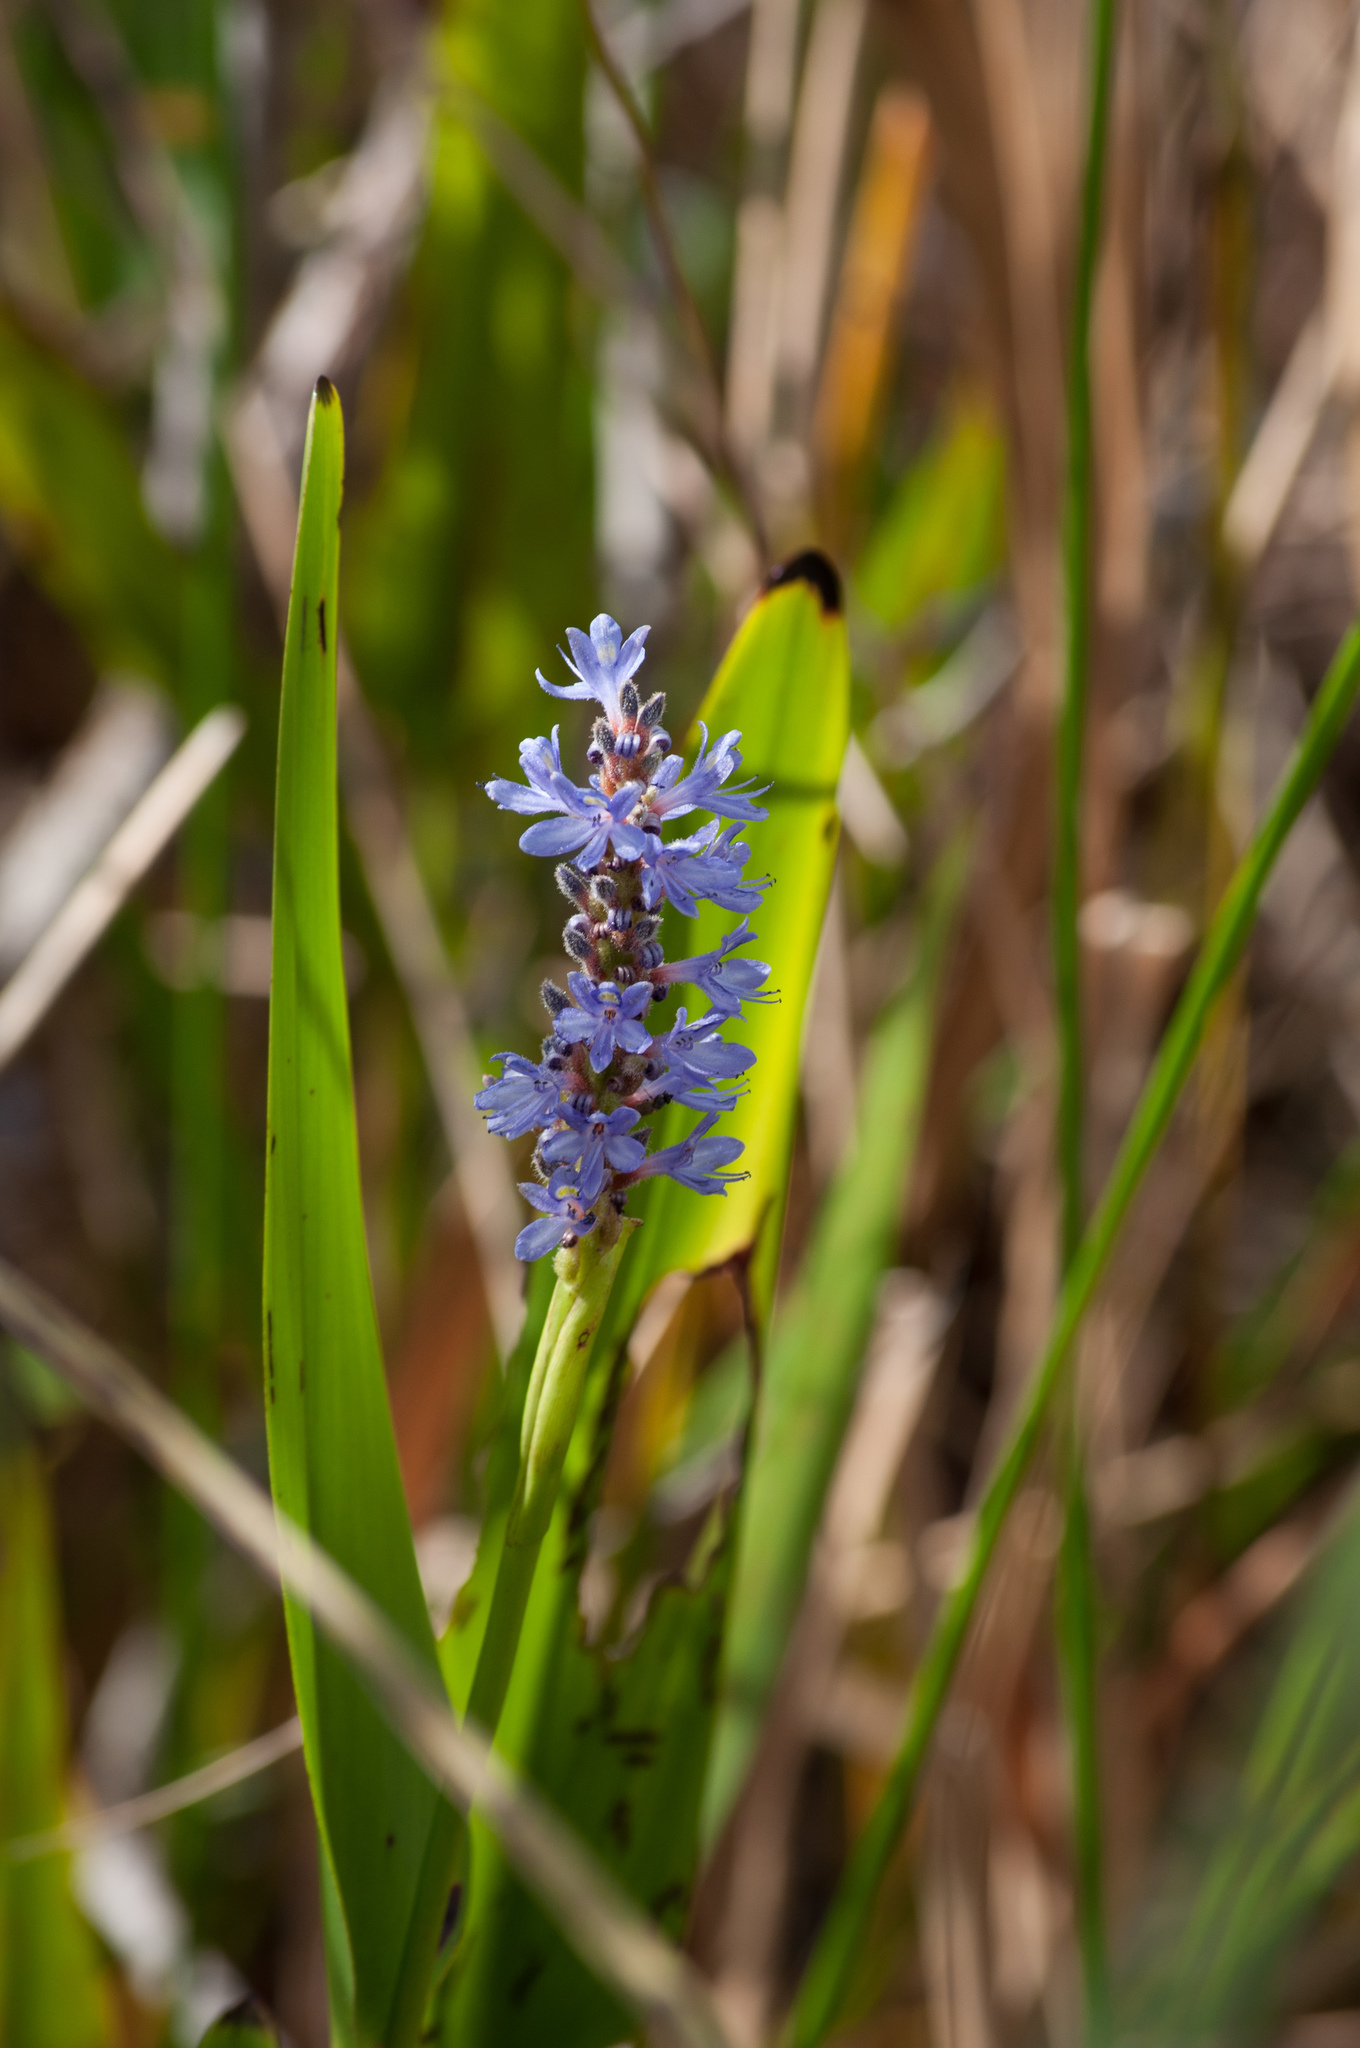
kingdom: Plantae
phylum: Tracheophyta
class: Liliopsida
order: Commelinales
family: Pontederiaceae
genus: Pontederia
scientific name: Pontederia cordata
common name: Pickerelweed
